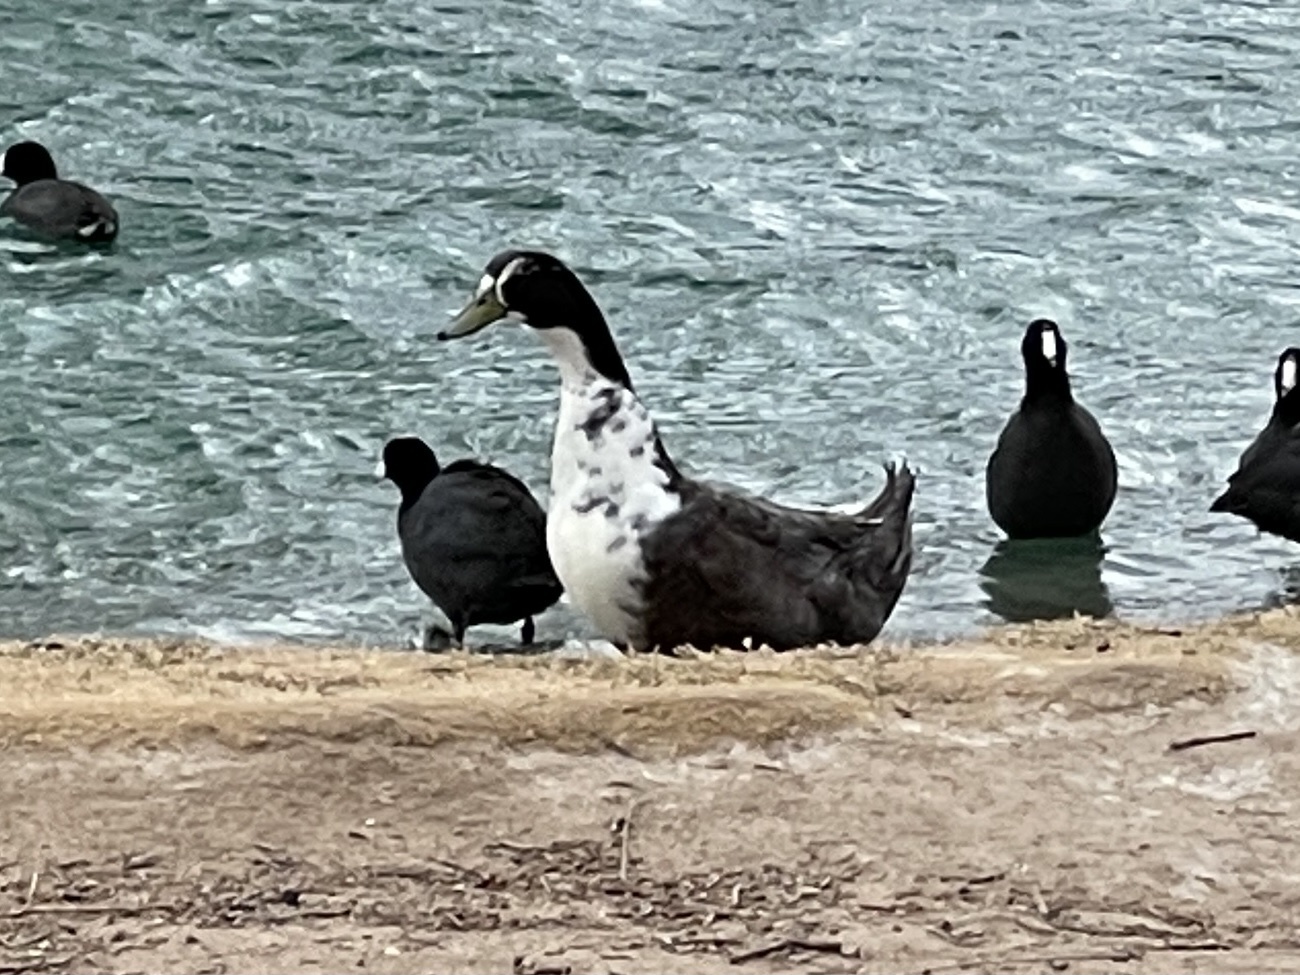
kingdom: Animalia
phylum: Chordata
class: Aves
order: Anseriformes
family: Anatidae
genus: Anas
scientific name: Anas platyrhynchos
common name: Mallard
